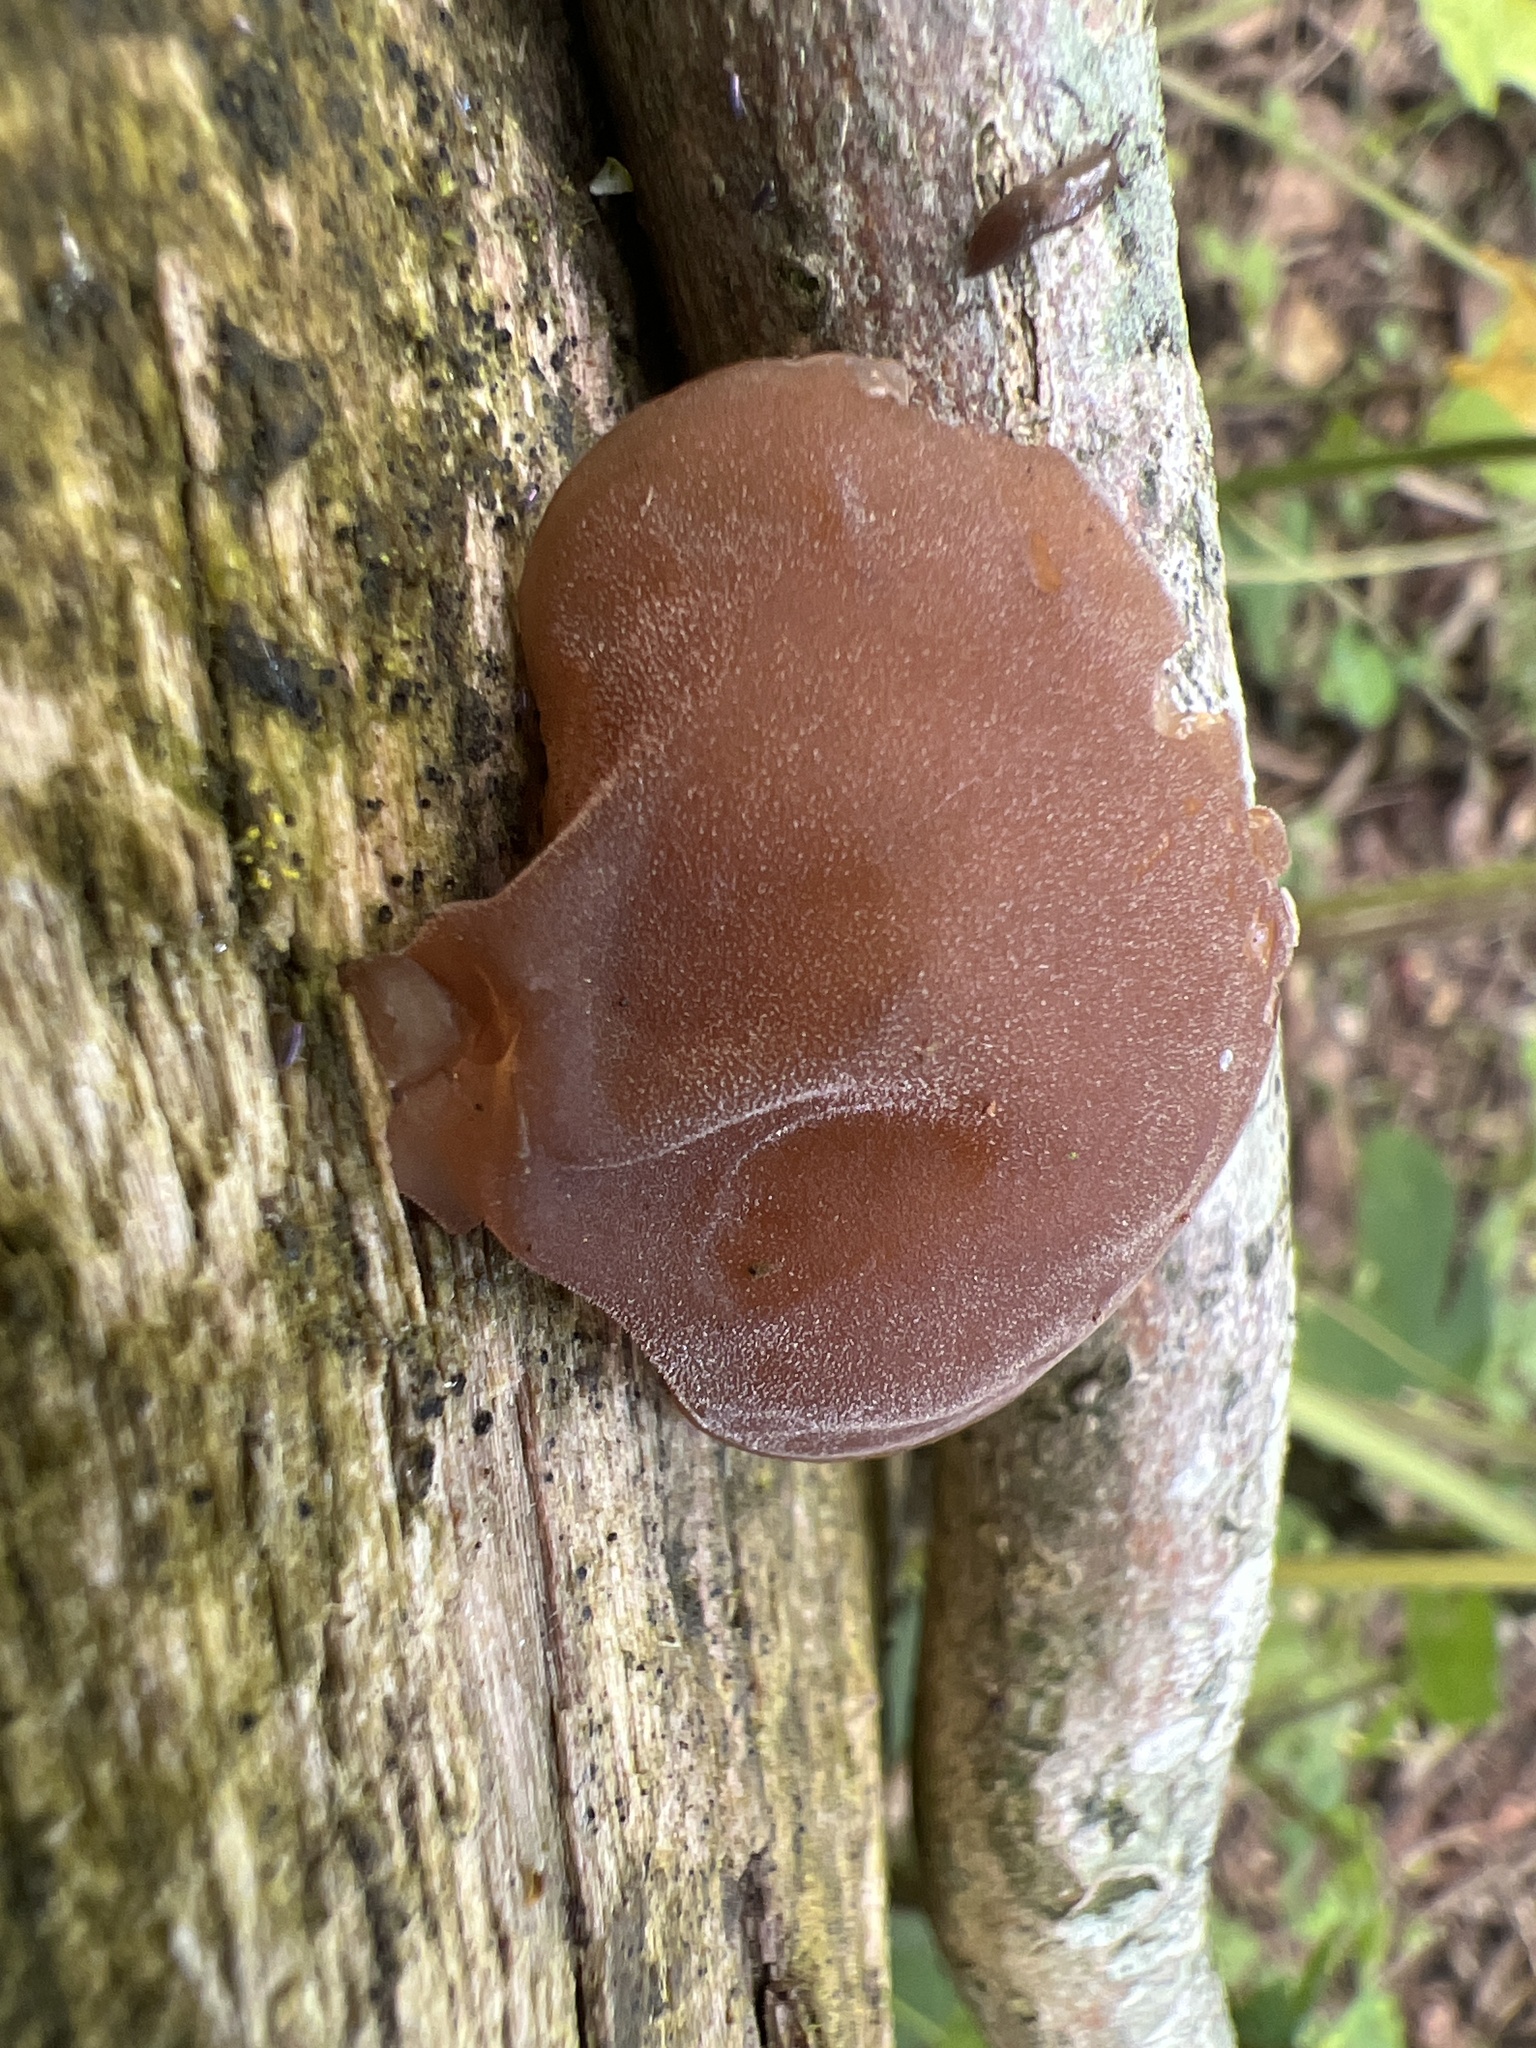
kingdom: Fungi
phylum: Basidiomycota
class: Agaricomycetes
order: Auriculariales
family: Auriculariaceae
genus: Auricularia
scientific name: Auricularia auricula-judae
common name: Jelly ear
